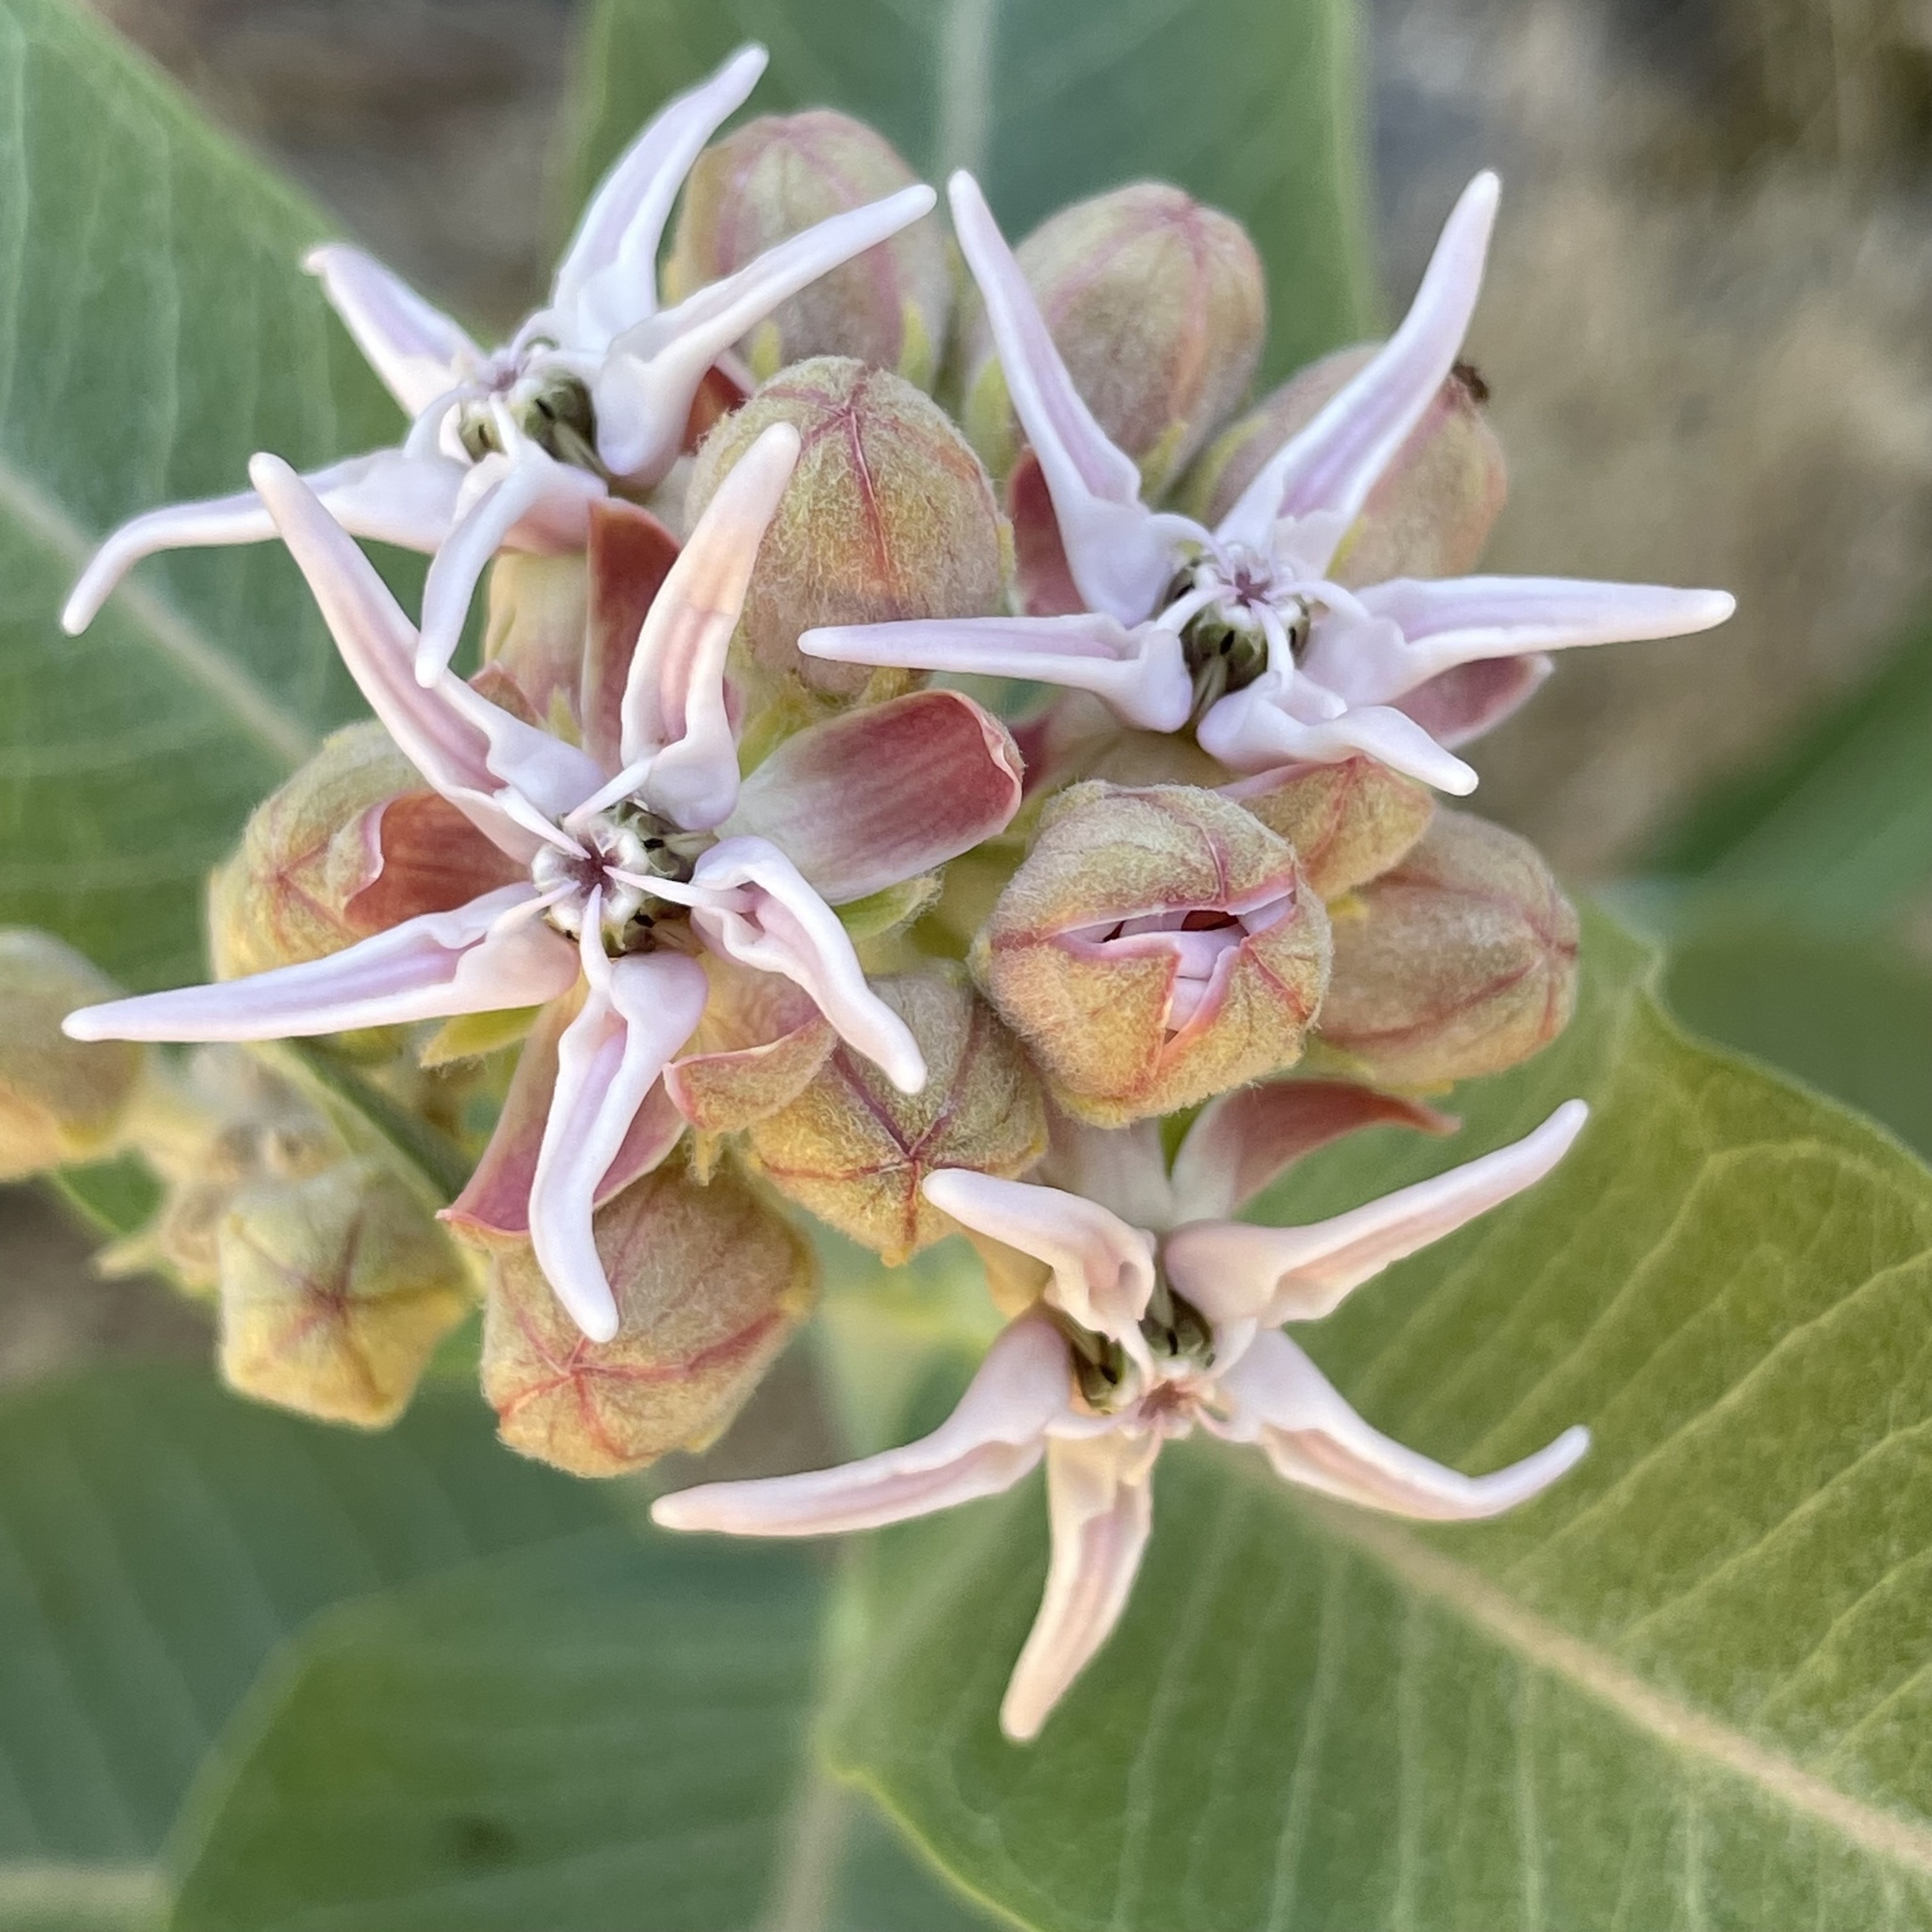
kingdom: Plantae
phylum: Tracheophyta
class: Magnoliopsida
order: Gentianales
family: Apocynaceae
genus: Asclepias
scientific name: Asclepias speciosa
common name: Showy milkweed
